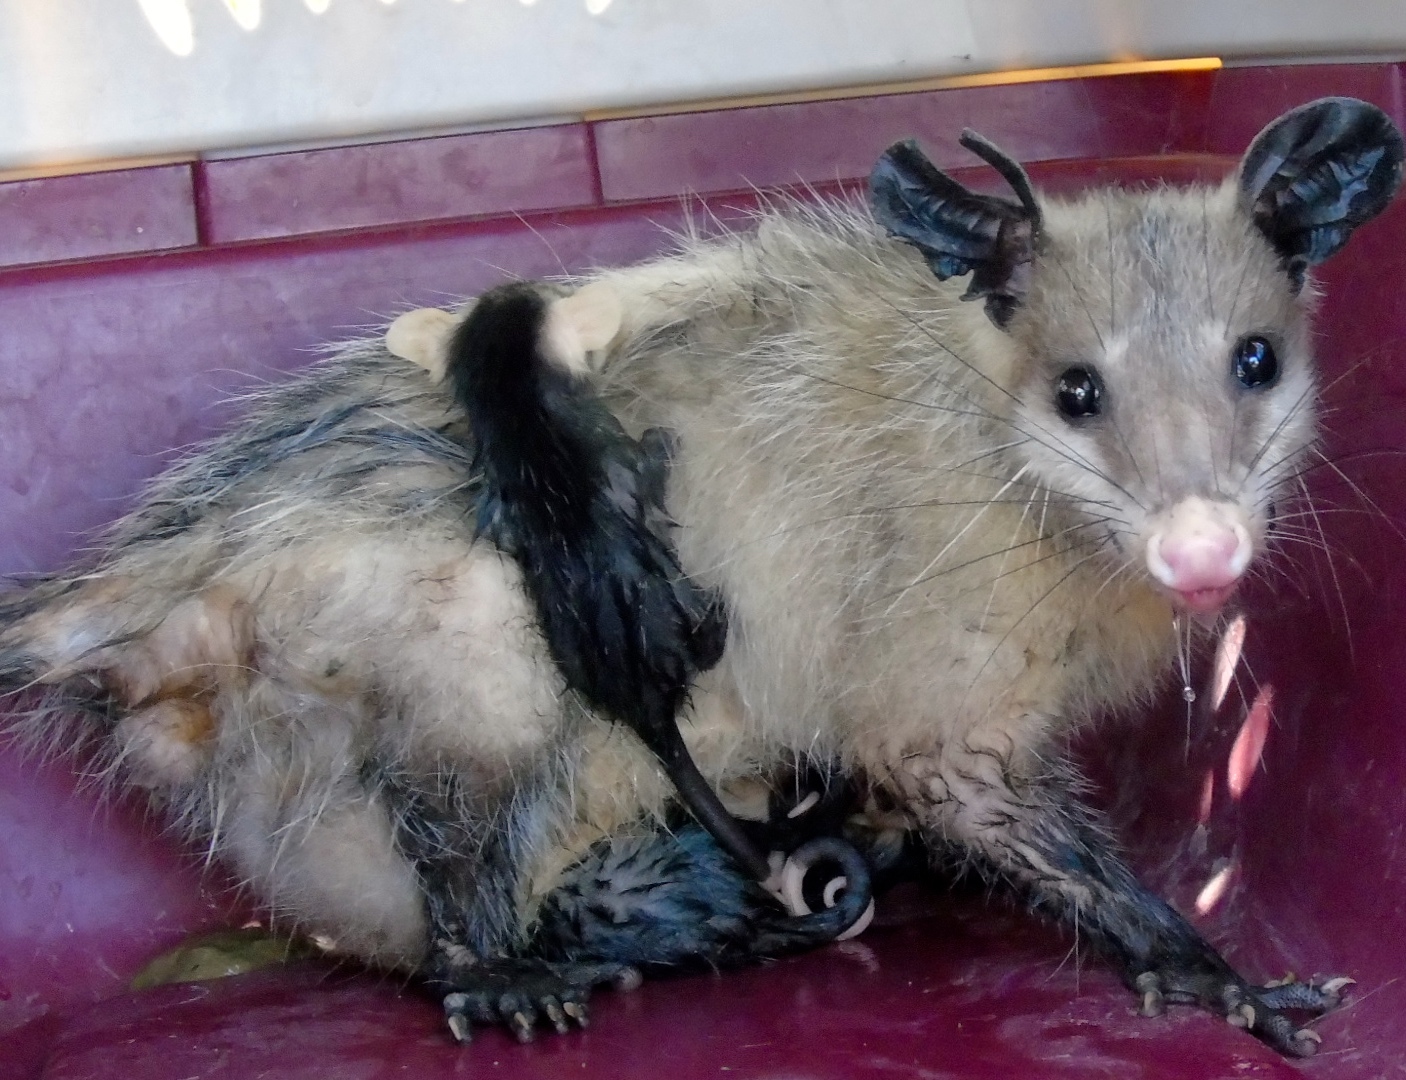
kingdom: Animalia
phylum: Chordata
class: Mammalia
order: Didelphimorphia
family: Didelphidae
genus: Didelphis
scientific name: Didelphis virginiana
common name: Virginia opossum
